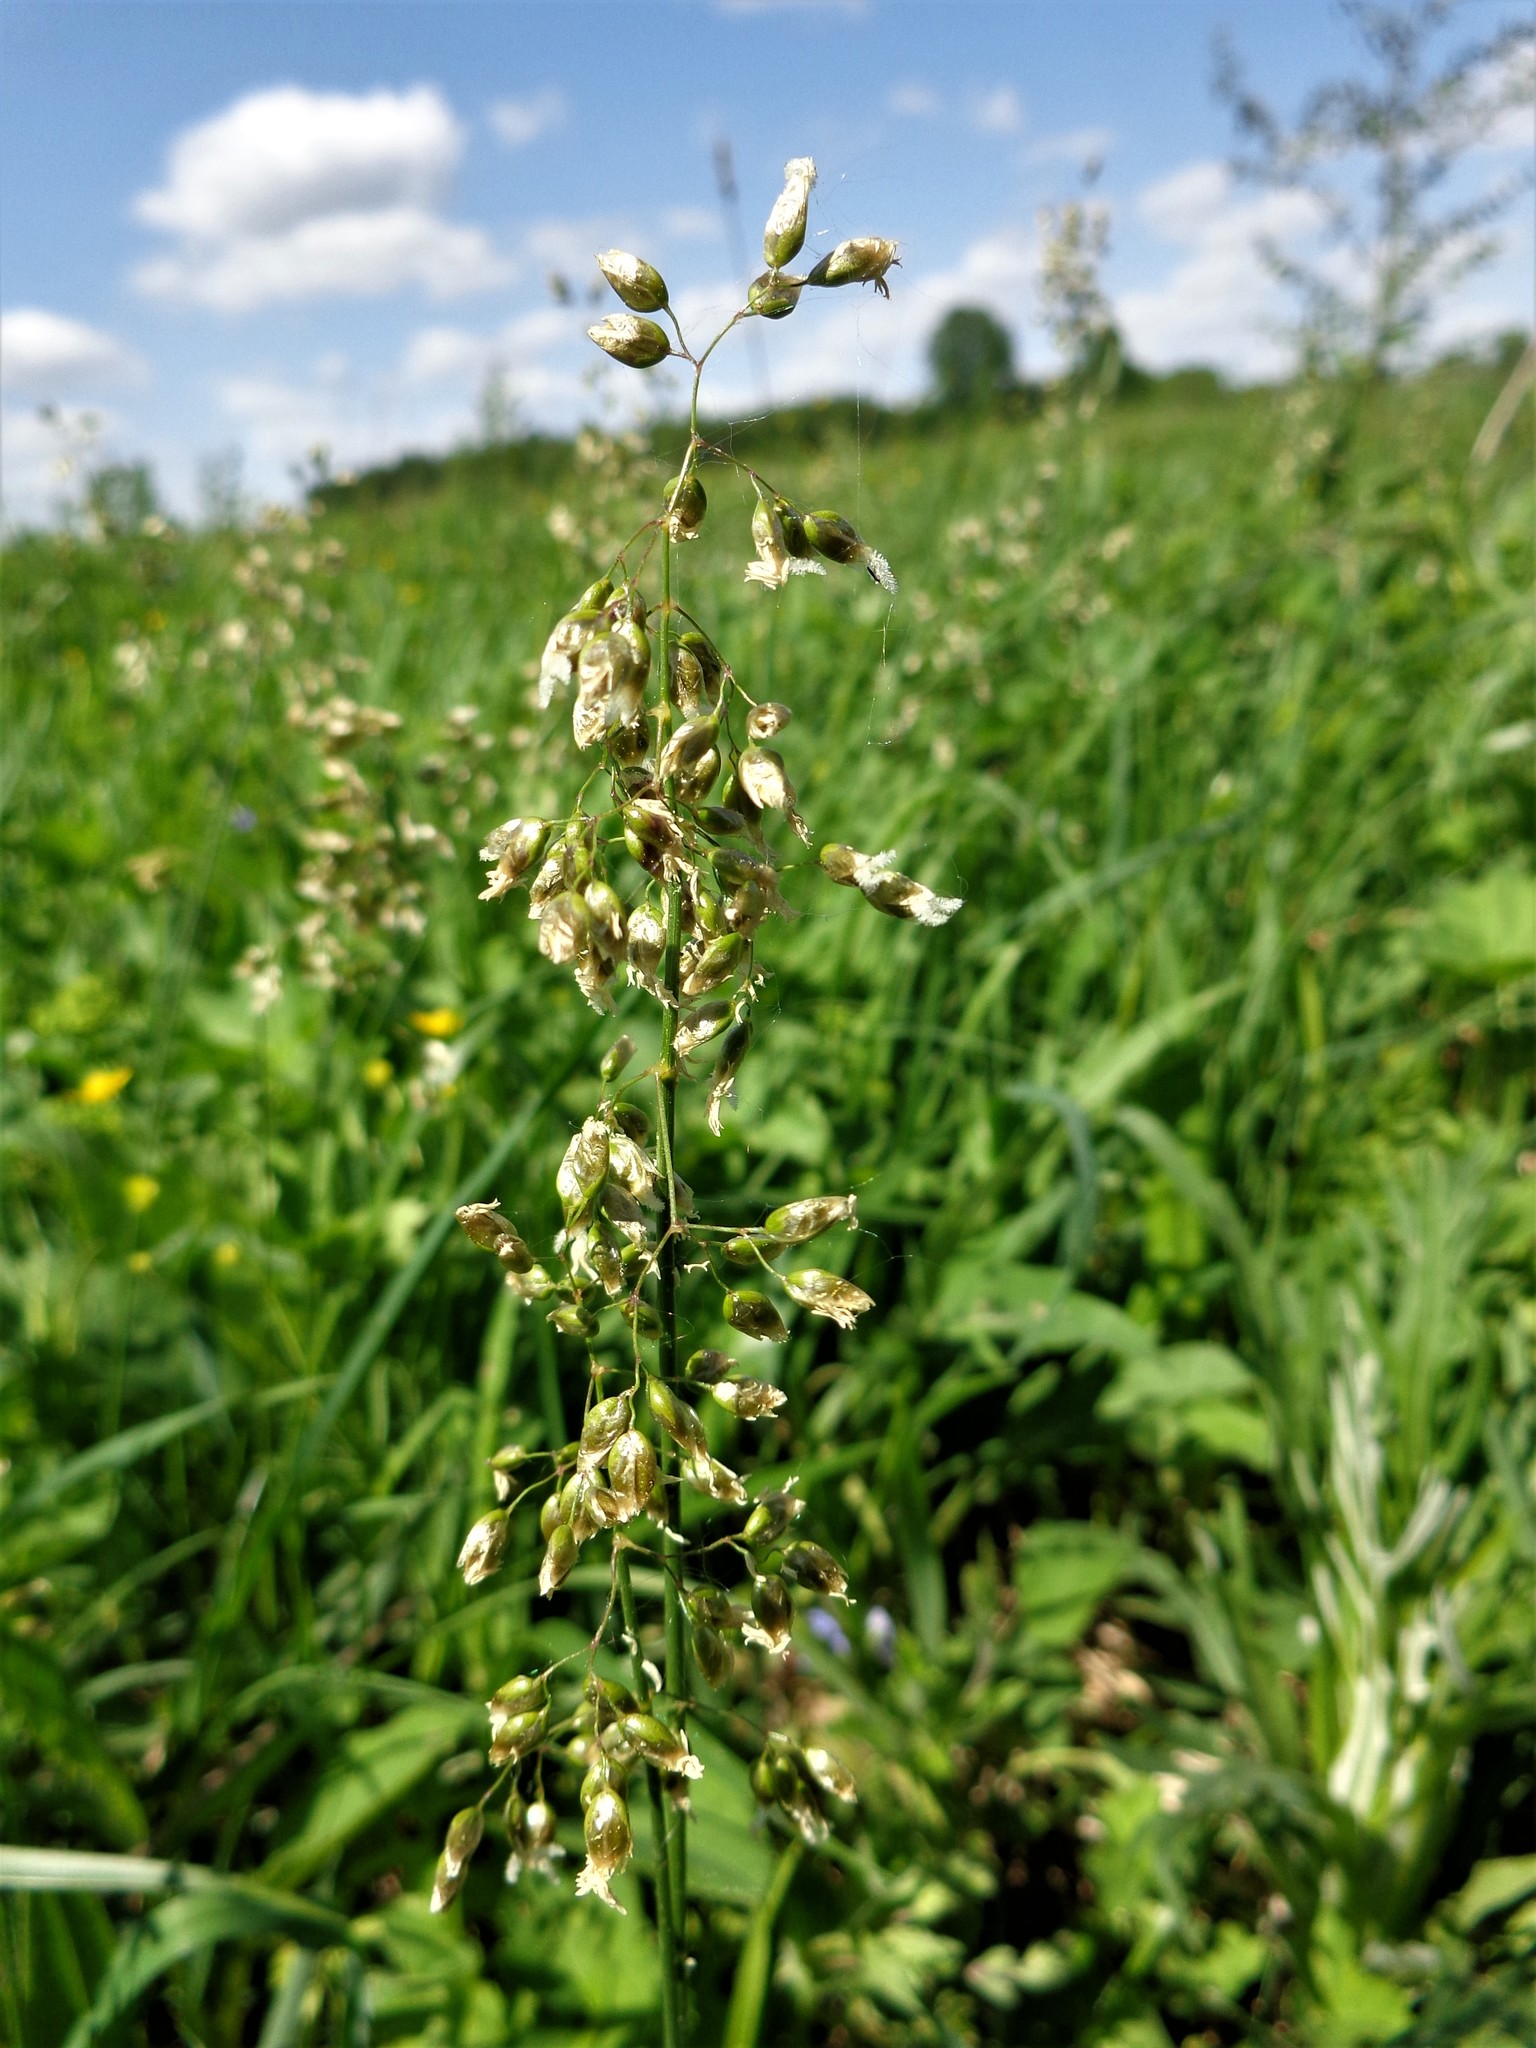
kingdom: Plantae
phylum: Tracheophyta
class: Liliopsida
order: Poales
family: Poaceae
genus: Anthoxanthum
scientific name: Anthoxanthum nitens
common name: Holy grass
